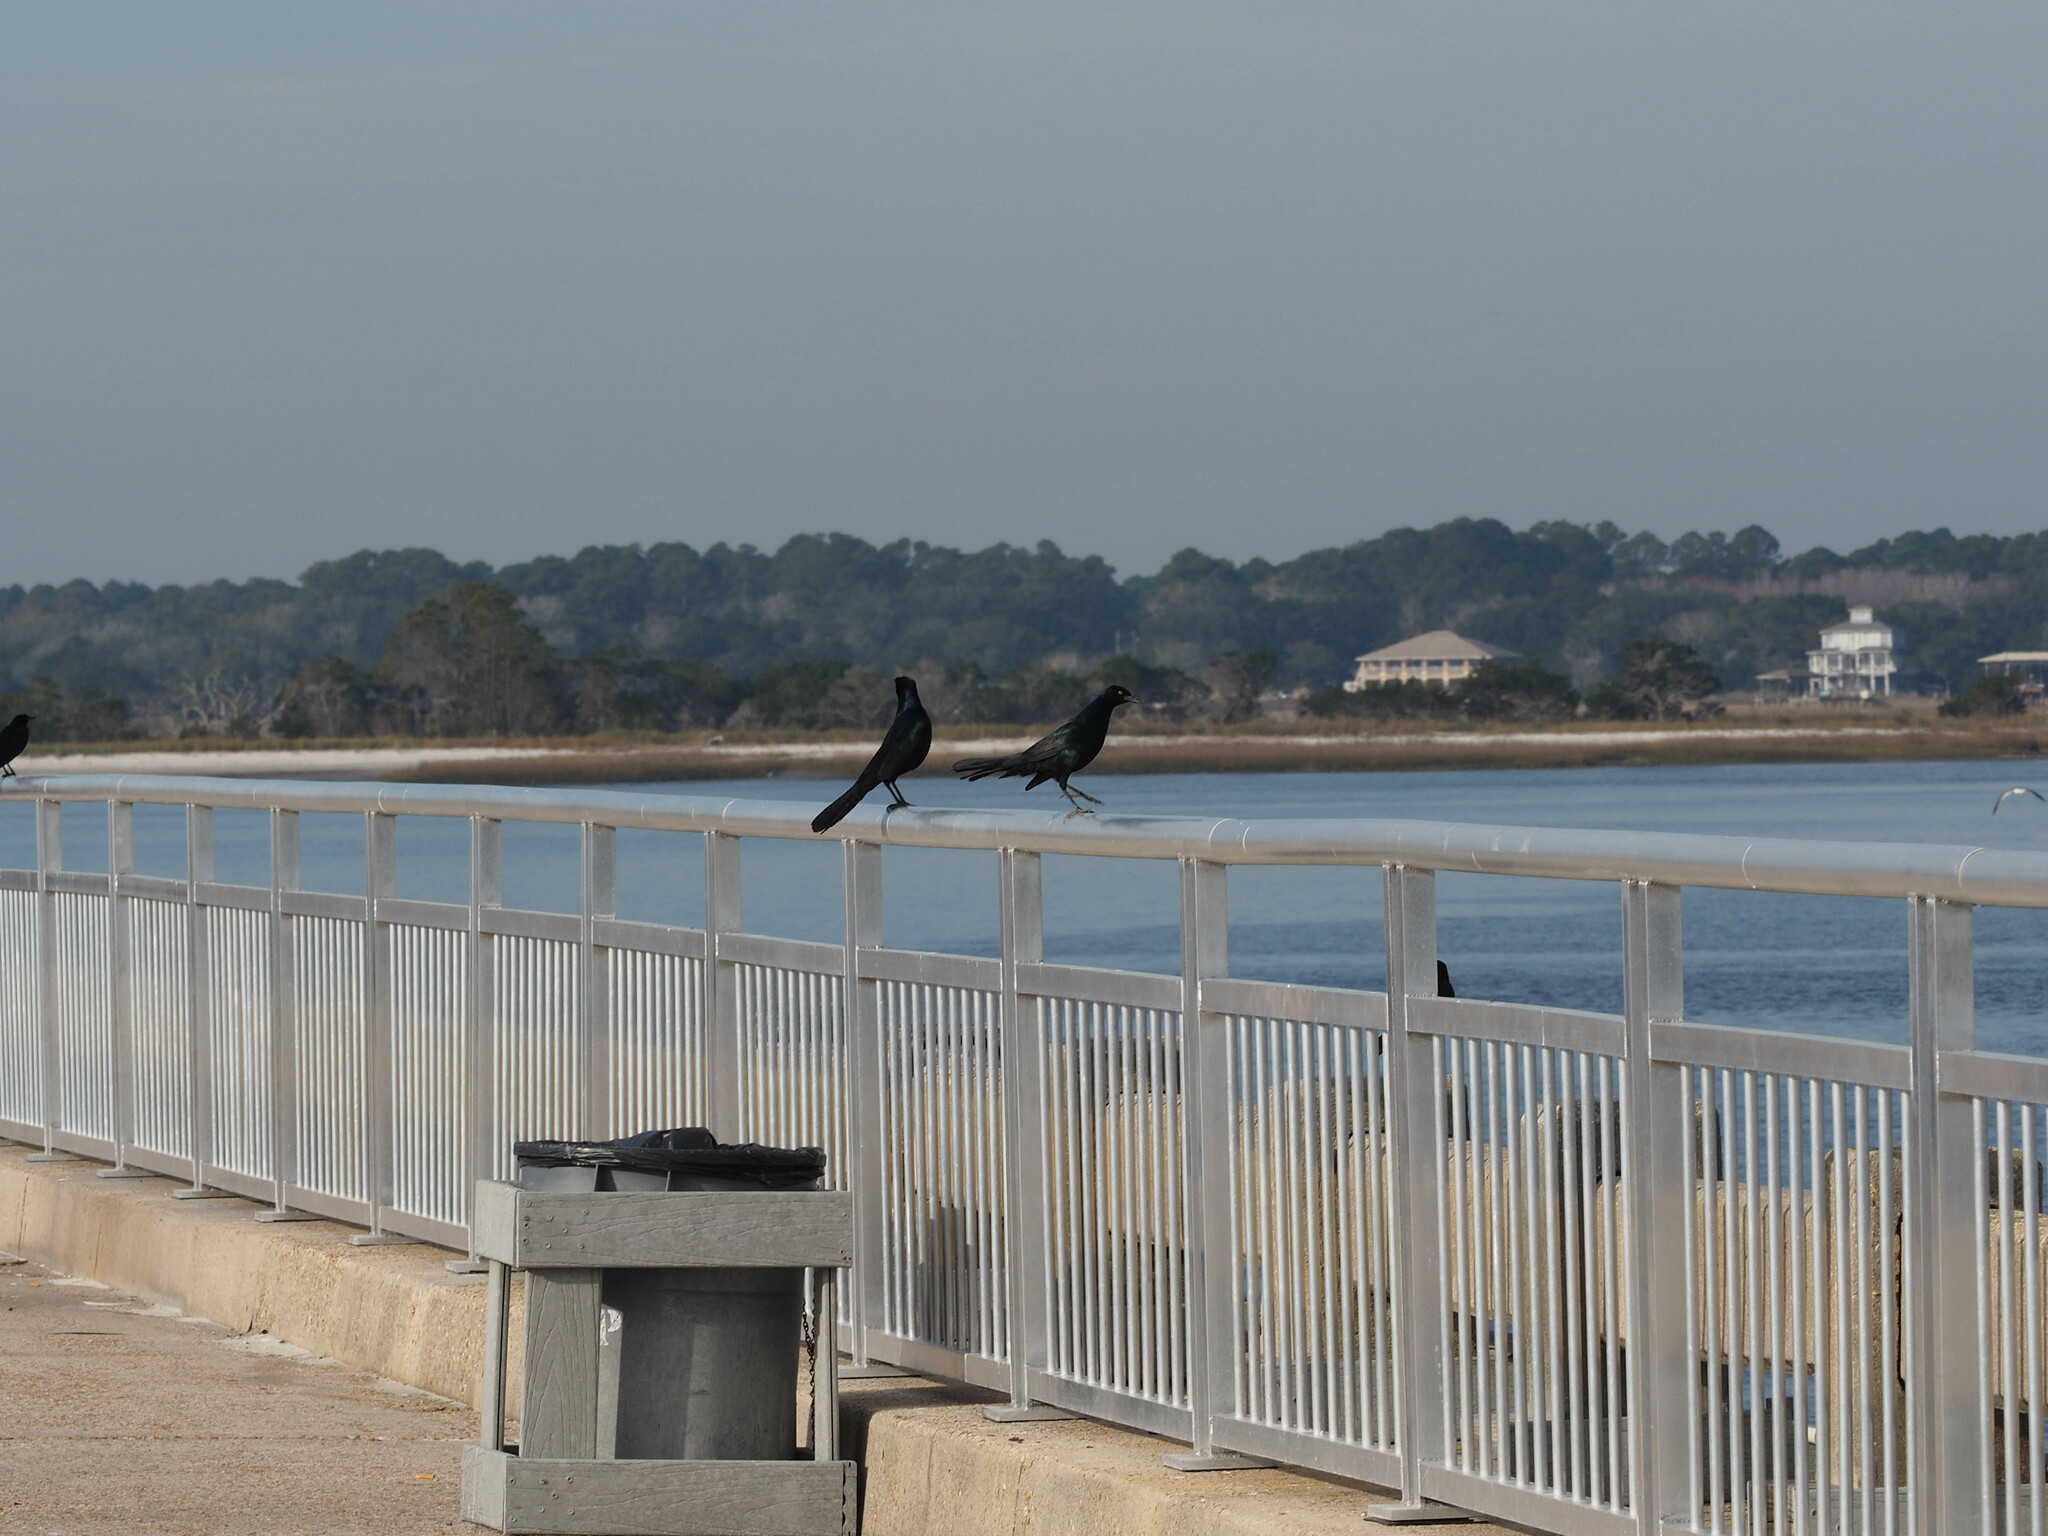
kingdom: Animalia
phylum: Chordata
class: Aves
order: Passeriformes
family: Icteridae
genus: Quiscalus
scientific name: Quiscalus major
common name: Boat-tailed grackle
